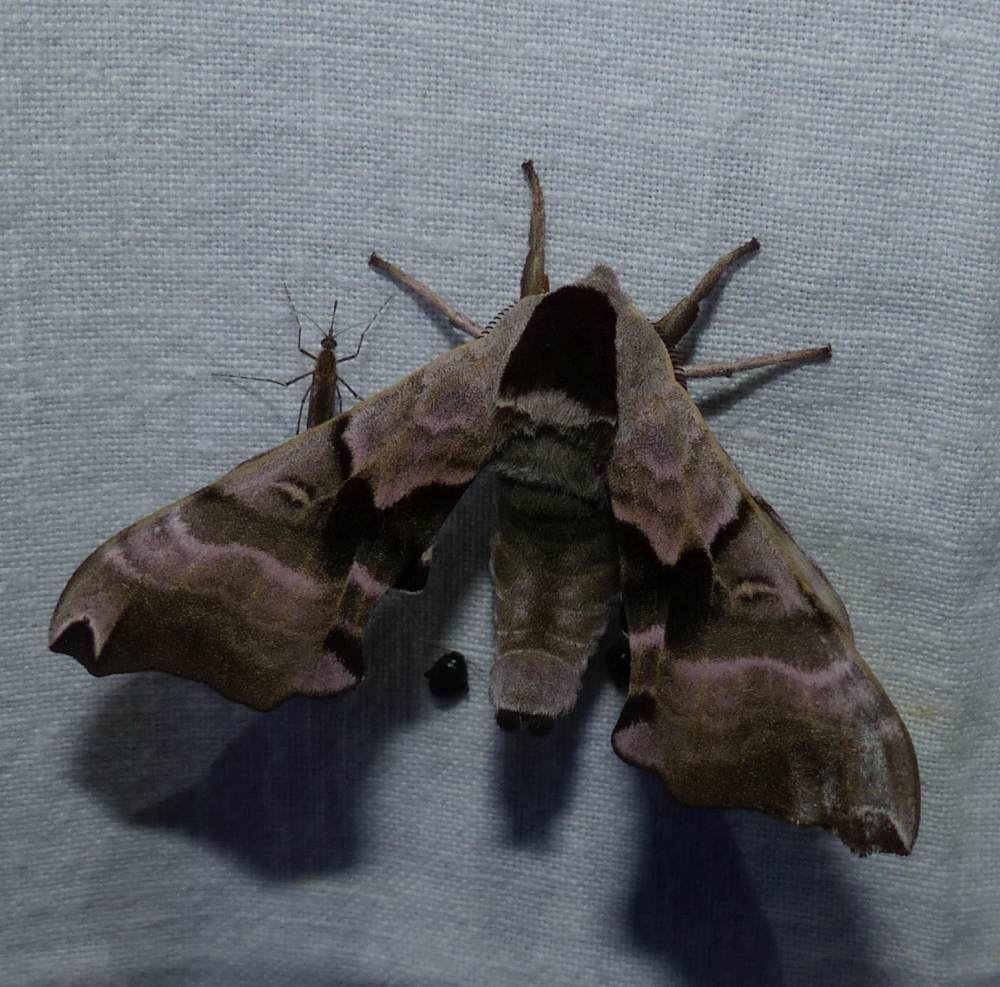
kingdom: Animalia
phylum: Arthropoda
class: Insecta
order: Lepidoptera
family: Sphingidae
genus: Smerinthus
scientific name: Smerinthus jamaicensis
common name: Twin spotted sphinx
